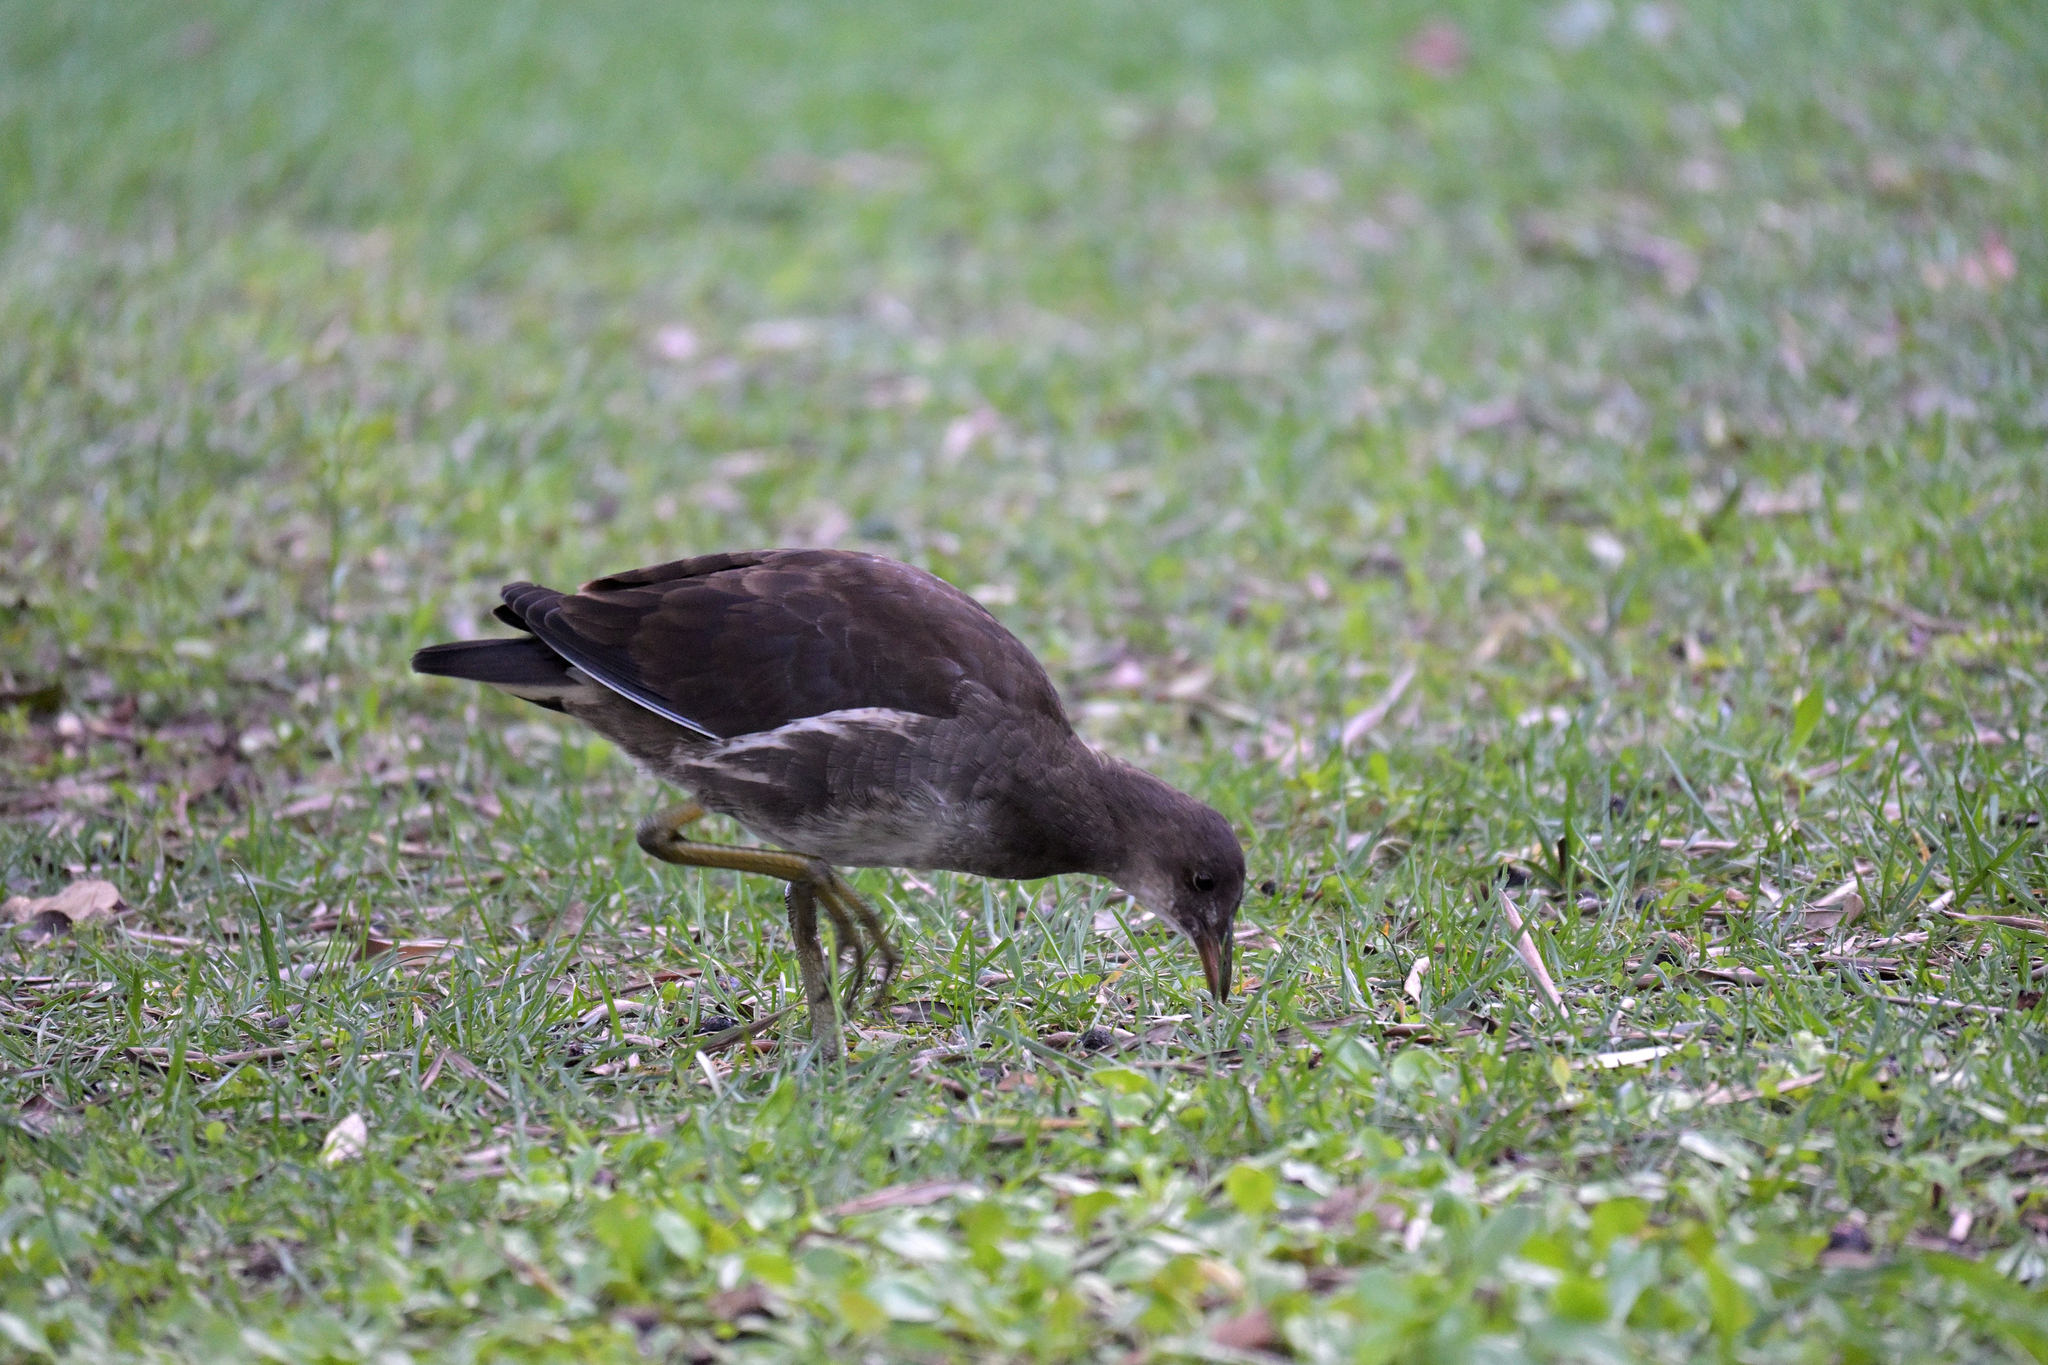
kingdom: Animalia
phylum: Chordata
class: Aves
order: Gruiformes
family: Rallidae
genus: Gallinula
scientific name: Gallinula chloropus
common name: Common moorhen
